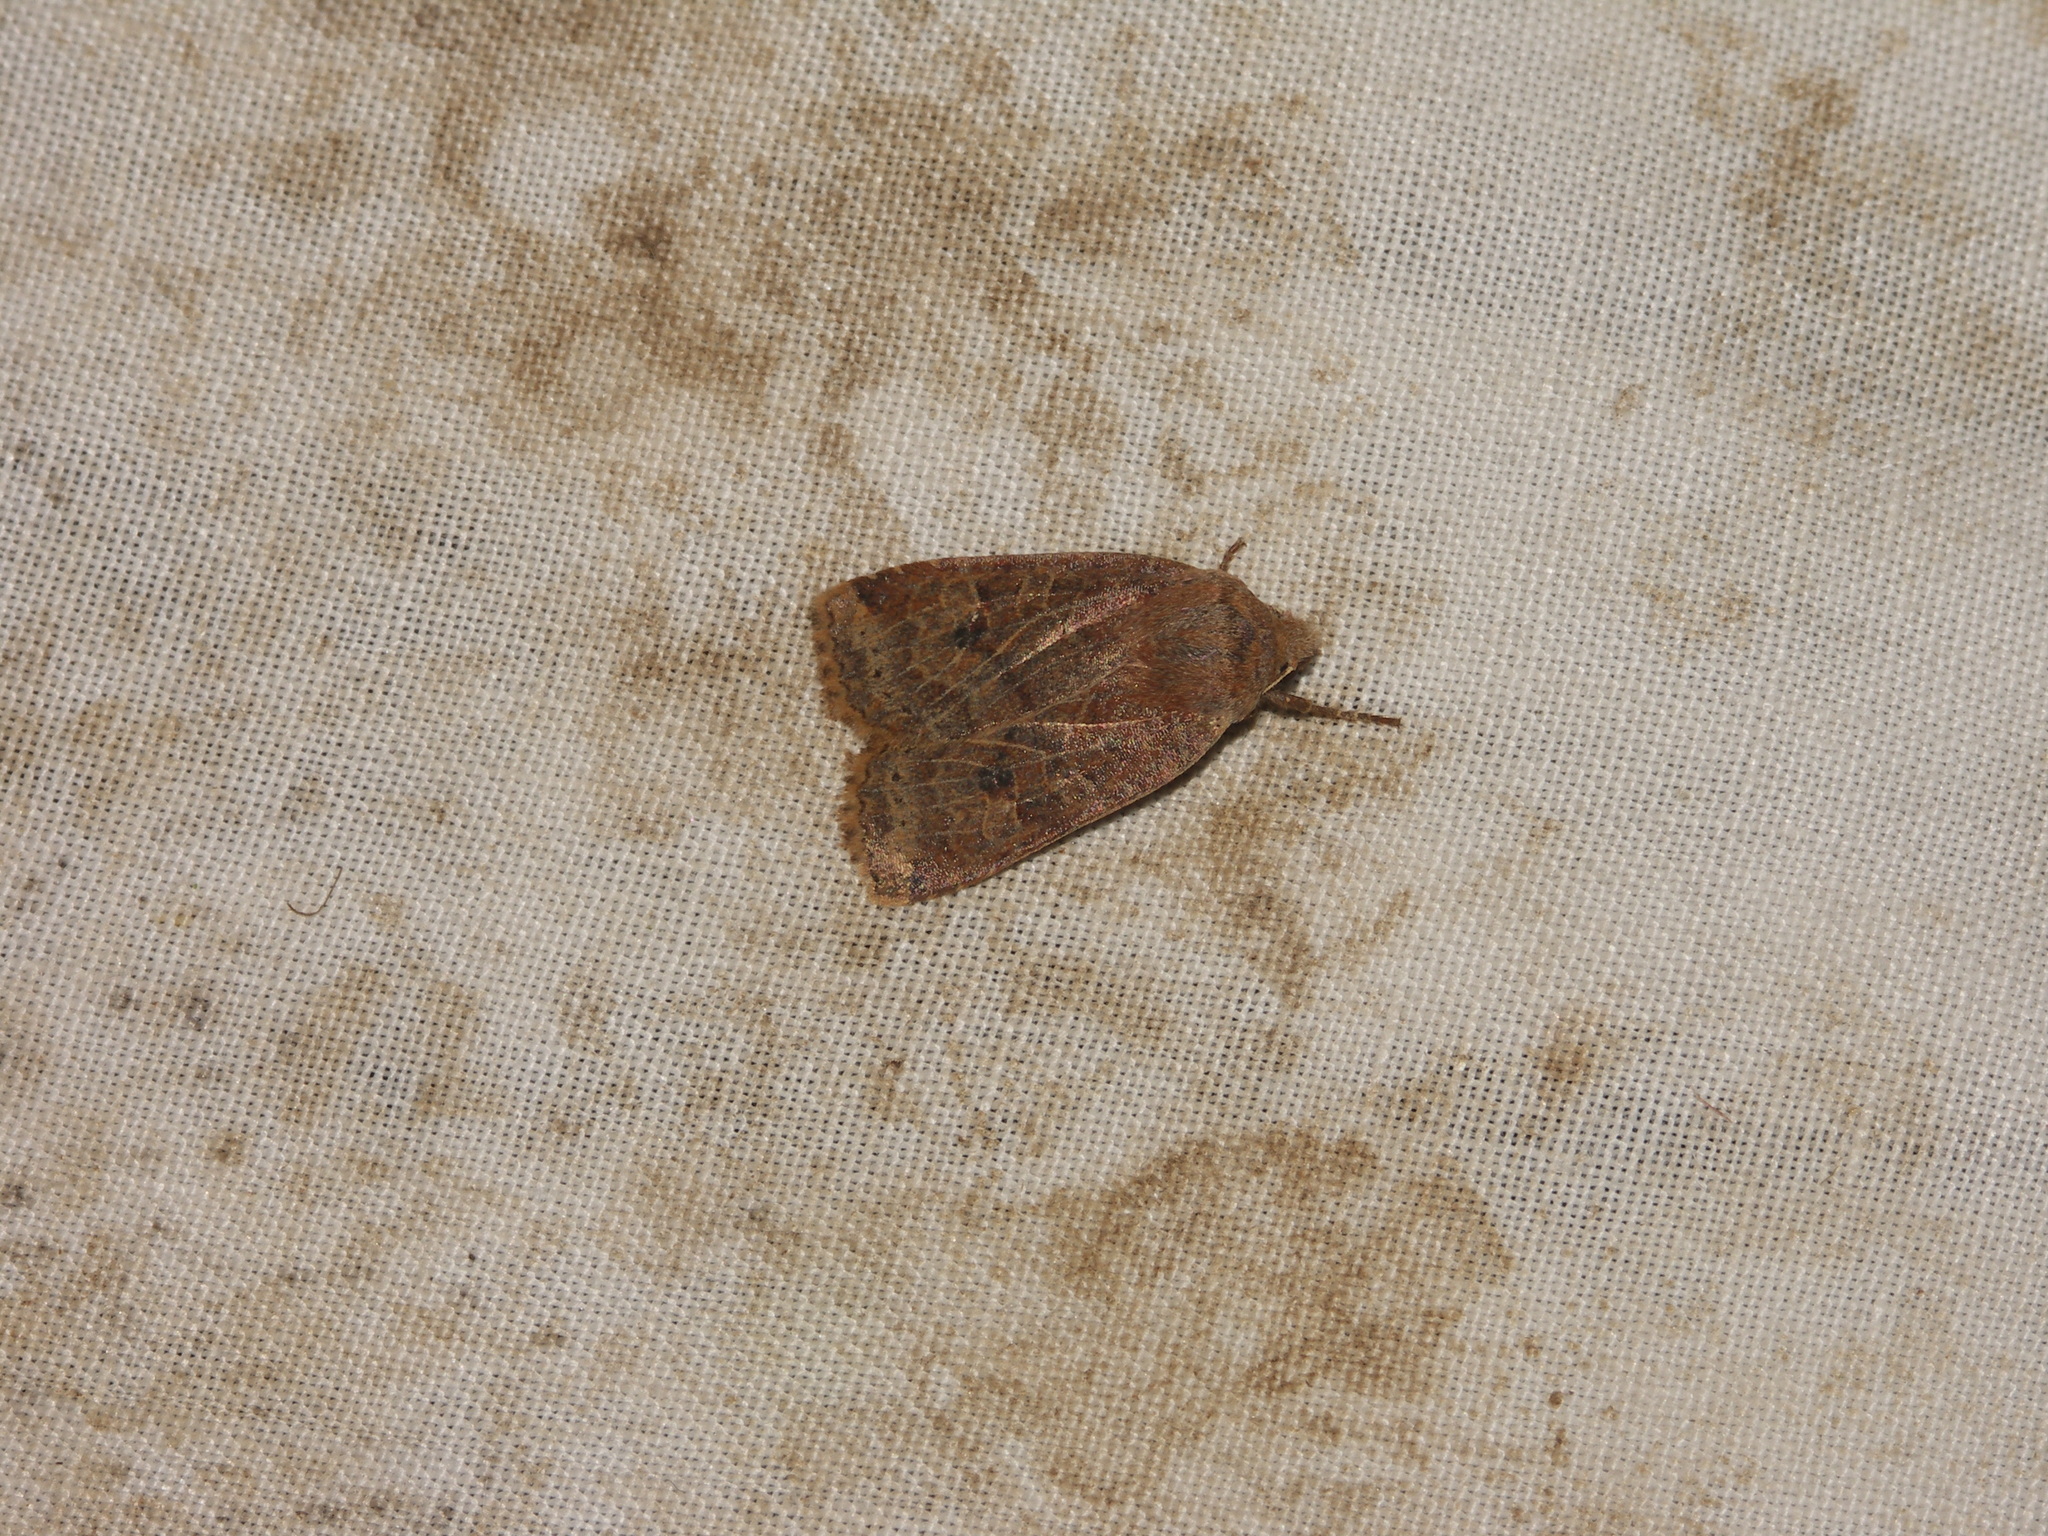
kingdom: Animalia
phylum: Arthropoda
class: Insecta
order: Lepidoptera
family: Noctuidae
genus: Conistra
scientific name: Conistra vaccinii
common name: Chestnut
